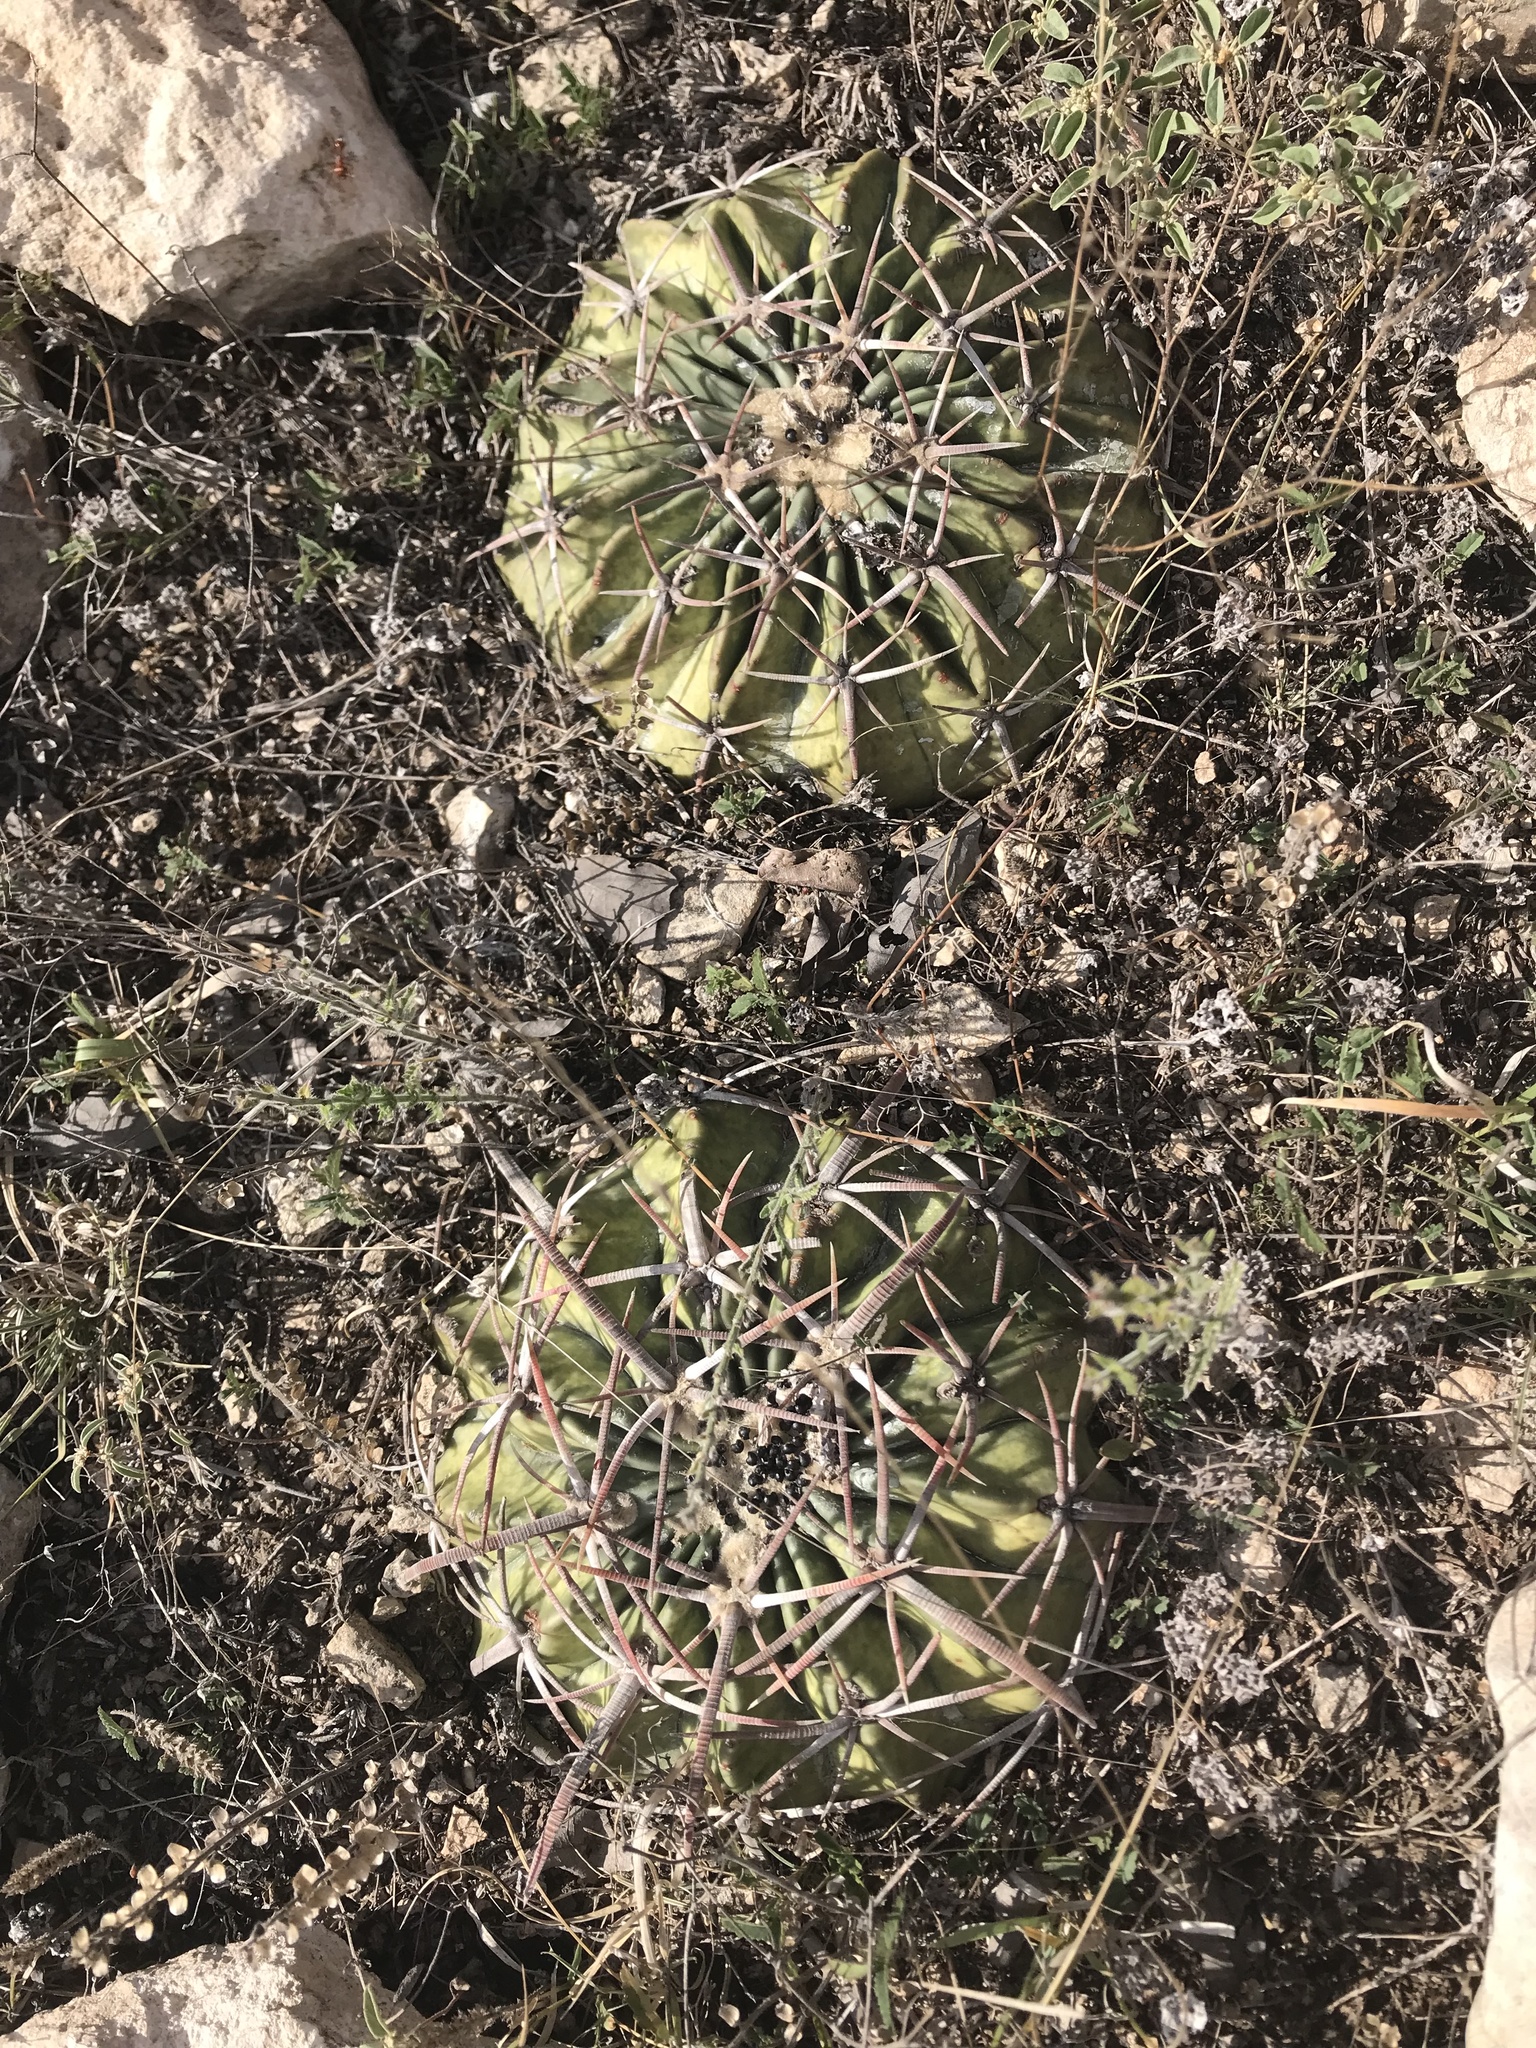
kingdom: Plantae
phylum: Tracheophyta
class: Magnoliopsida
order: Caryophyllales
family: Cactaceae
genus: Echinocactus
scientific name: Echinocactus texensis
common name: Devil's pincushion
